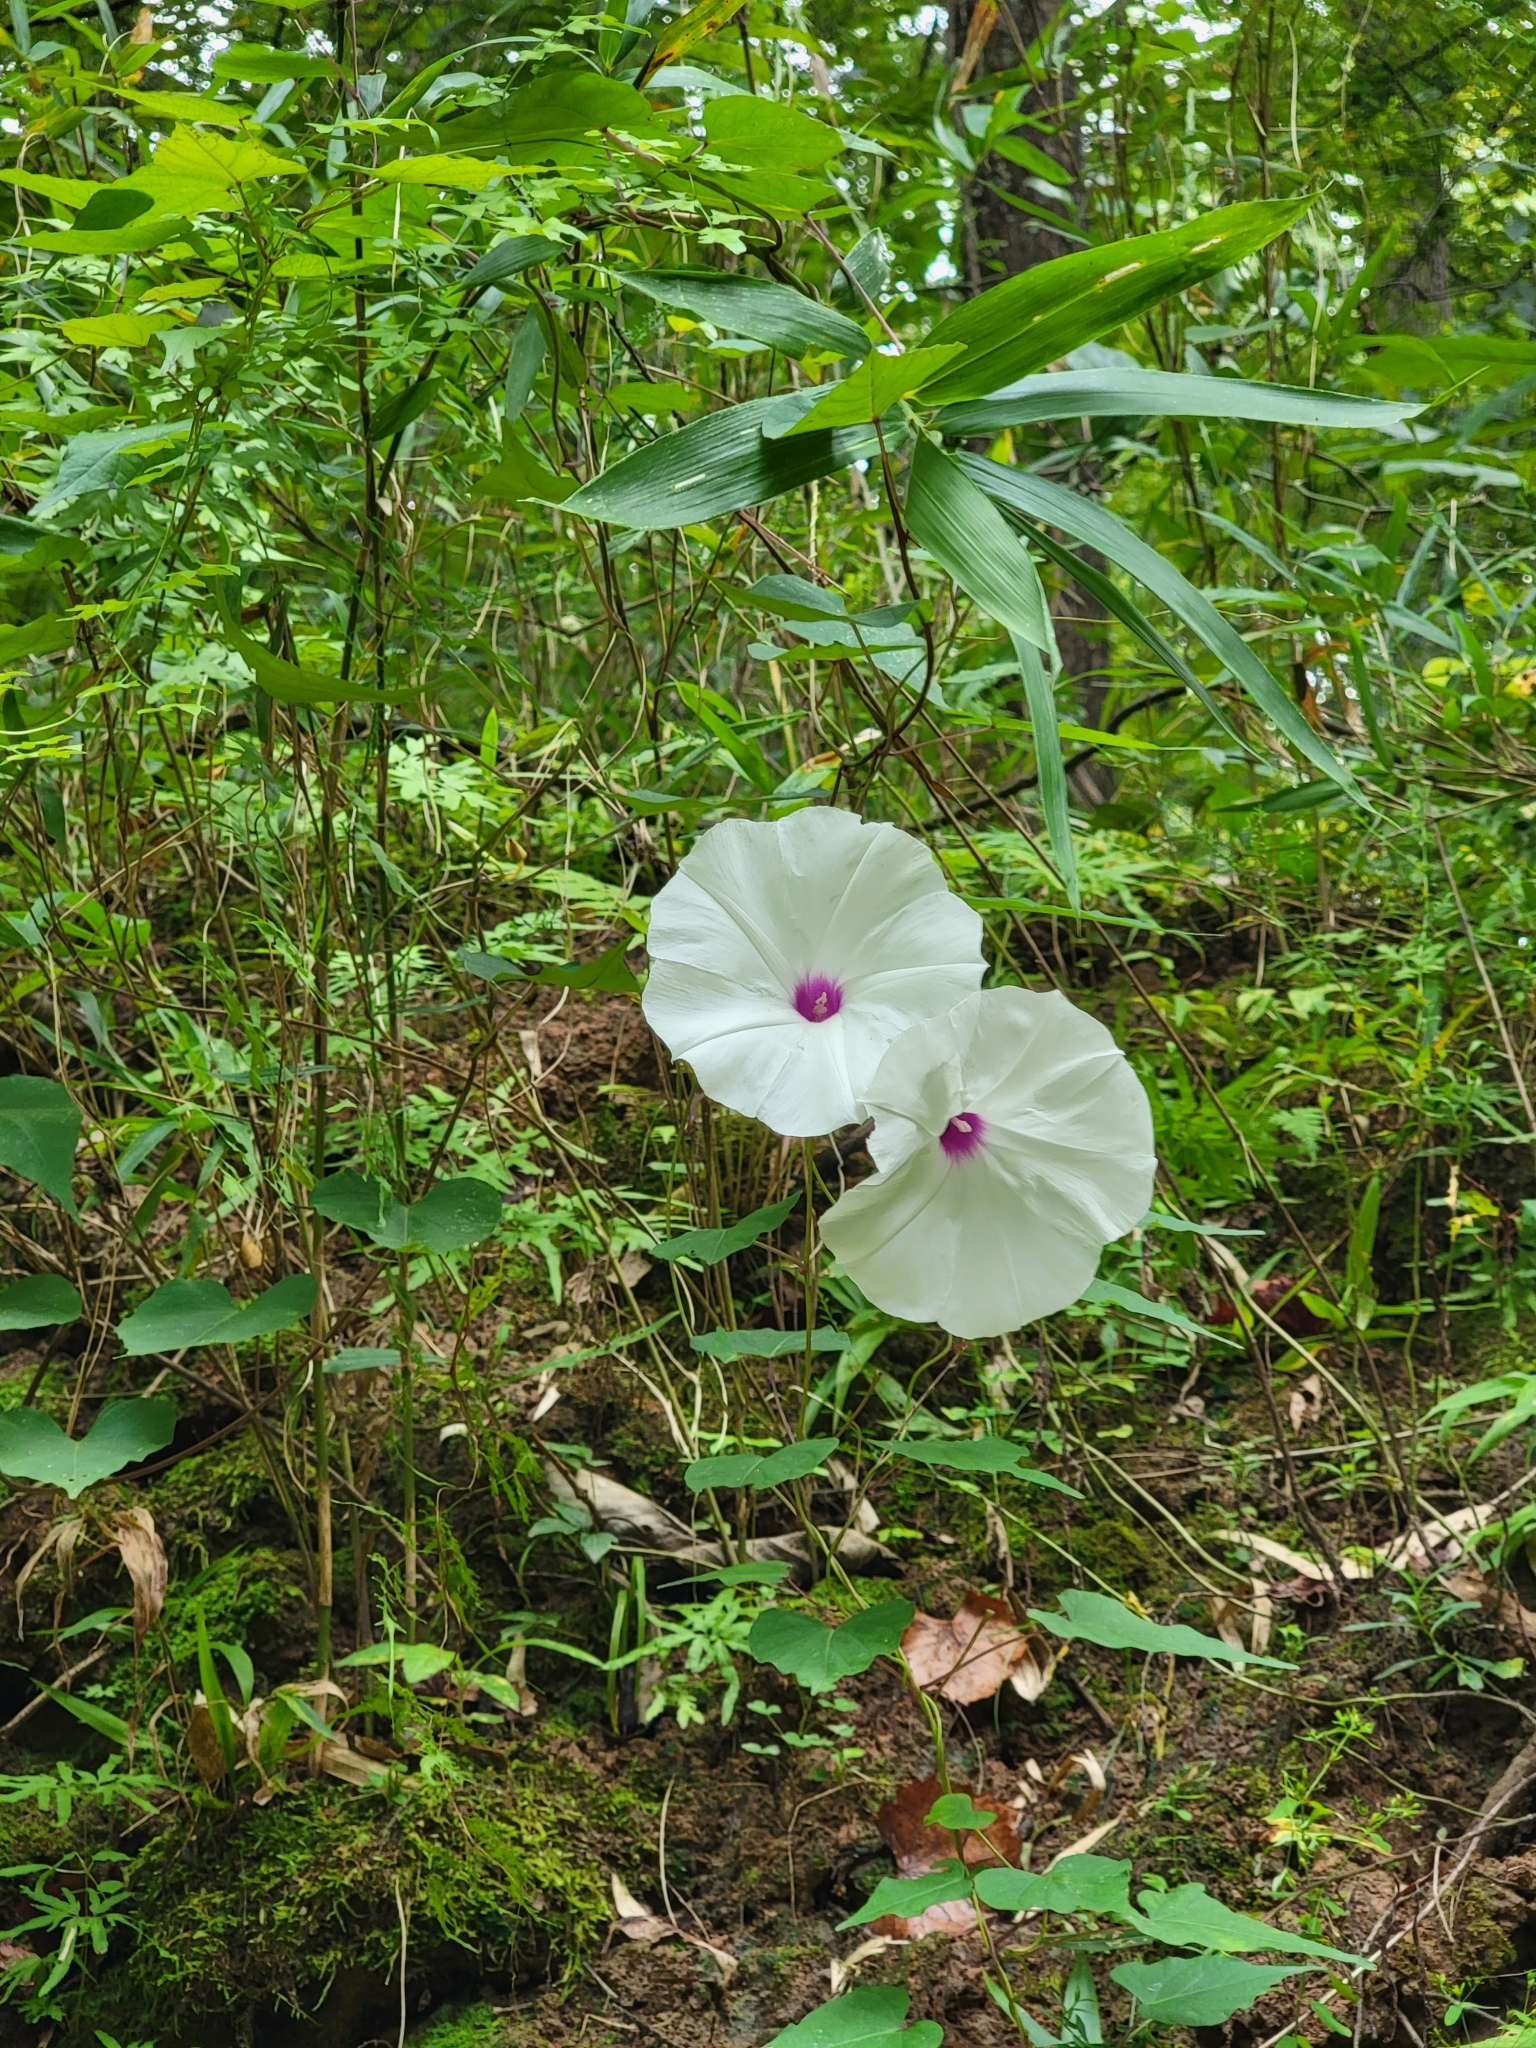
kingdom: Plantae
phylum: Tracheophyta
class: Magnoliopsida
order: Solanales
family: Convolvulaceae
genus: Ipomoea
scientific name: Ipomoea pandurata
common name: Man-of-the-earth
